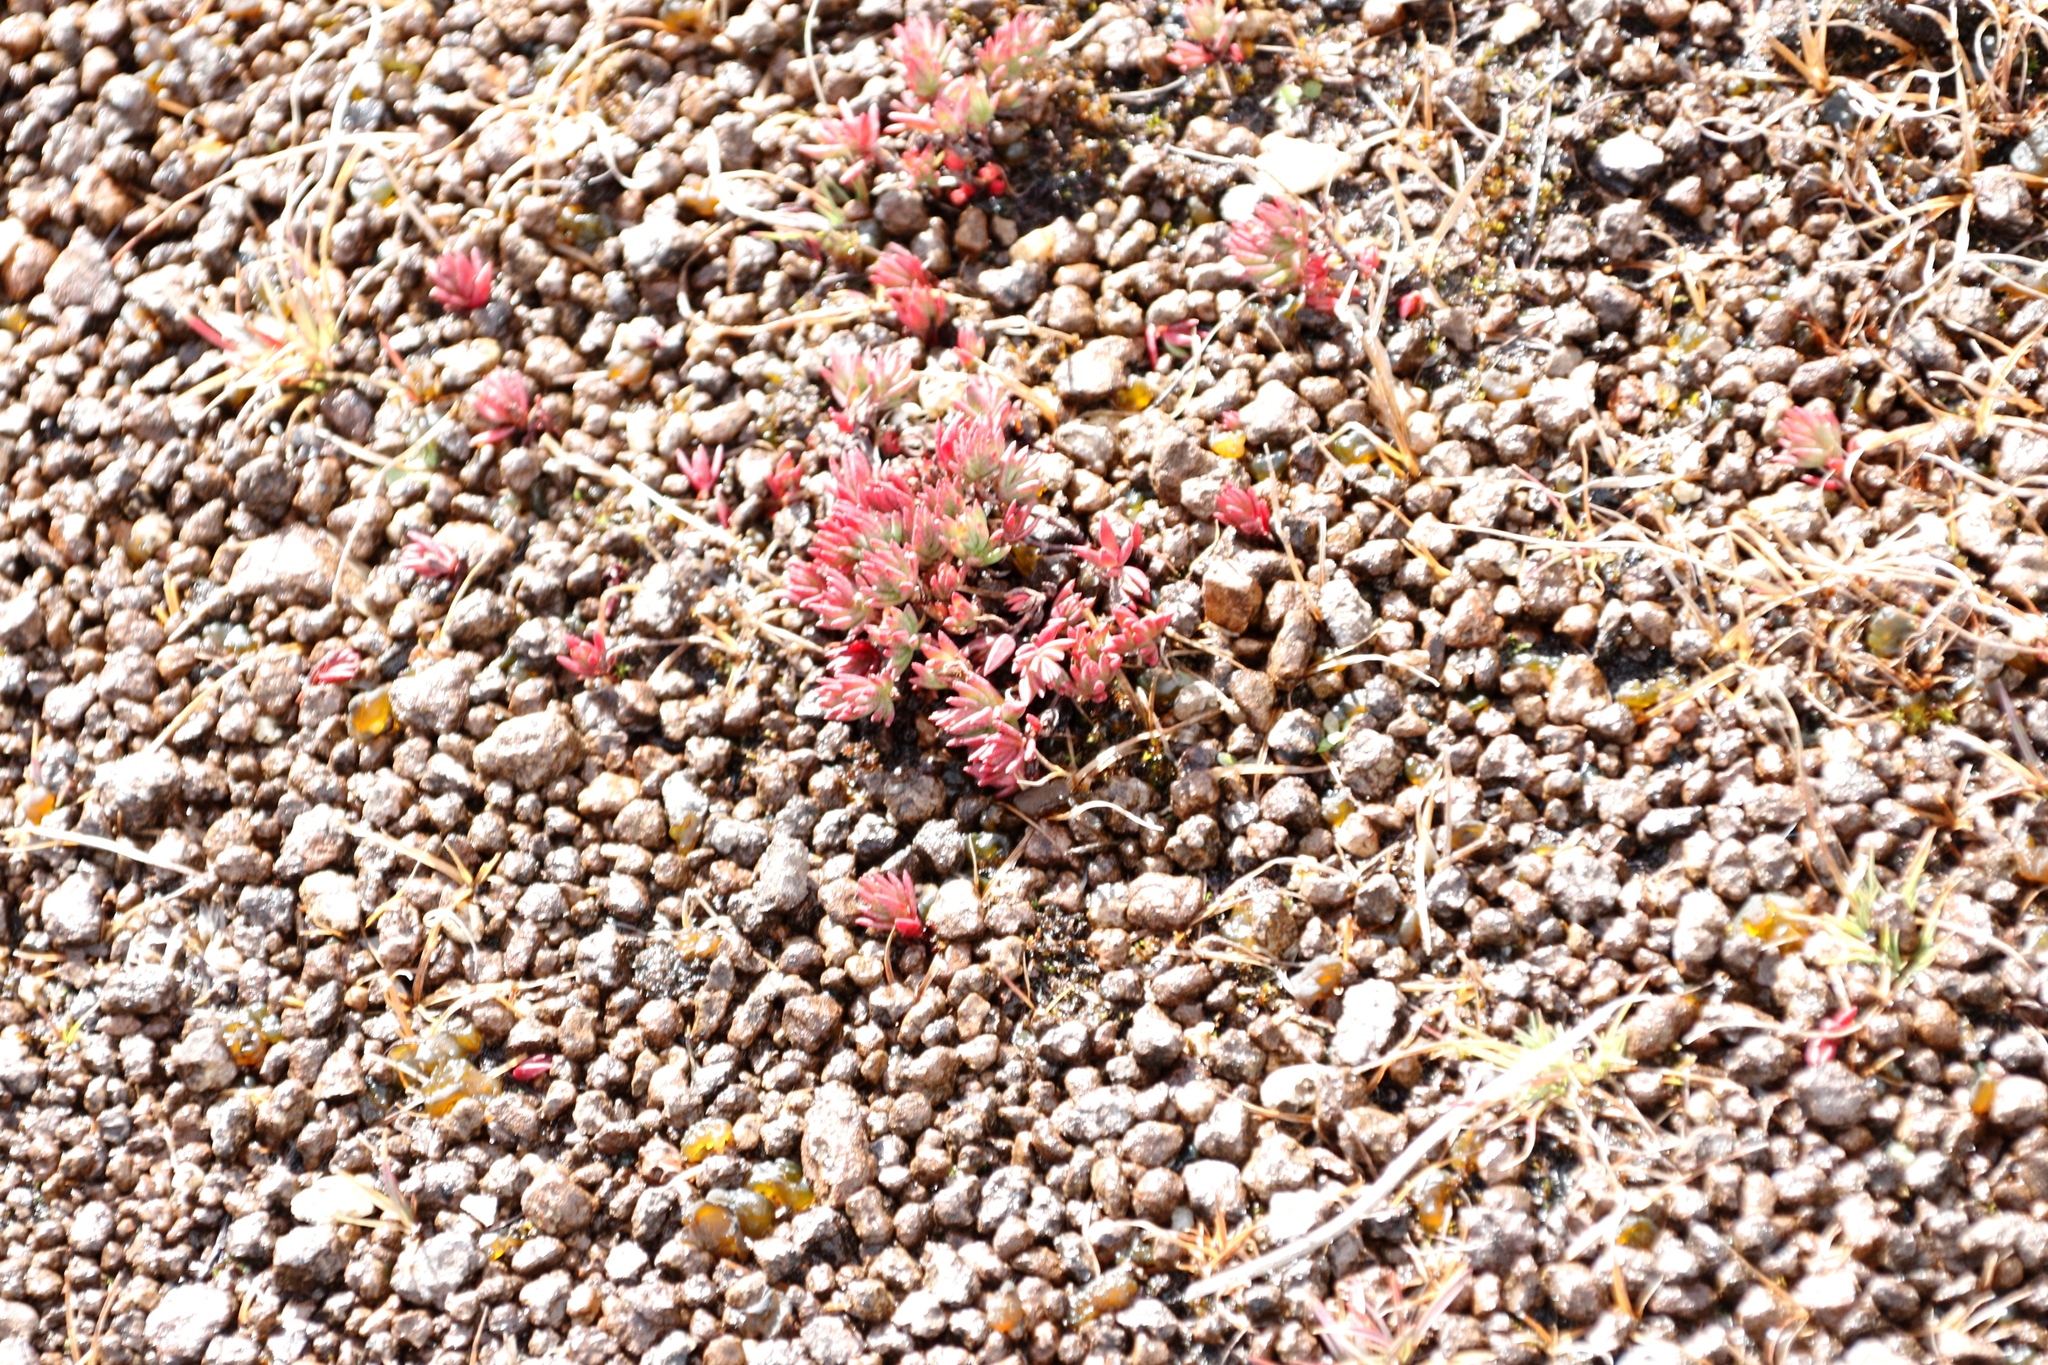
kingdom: Plantae
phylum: Tracheophyta
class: Magnoliopsida
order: Saxifragales
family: Crassulaceae
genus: Crassula
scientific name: Crassula dependens
